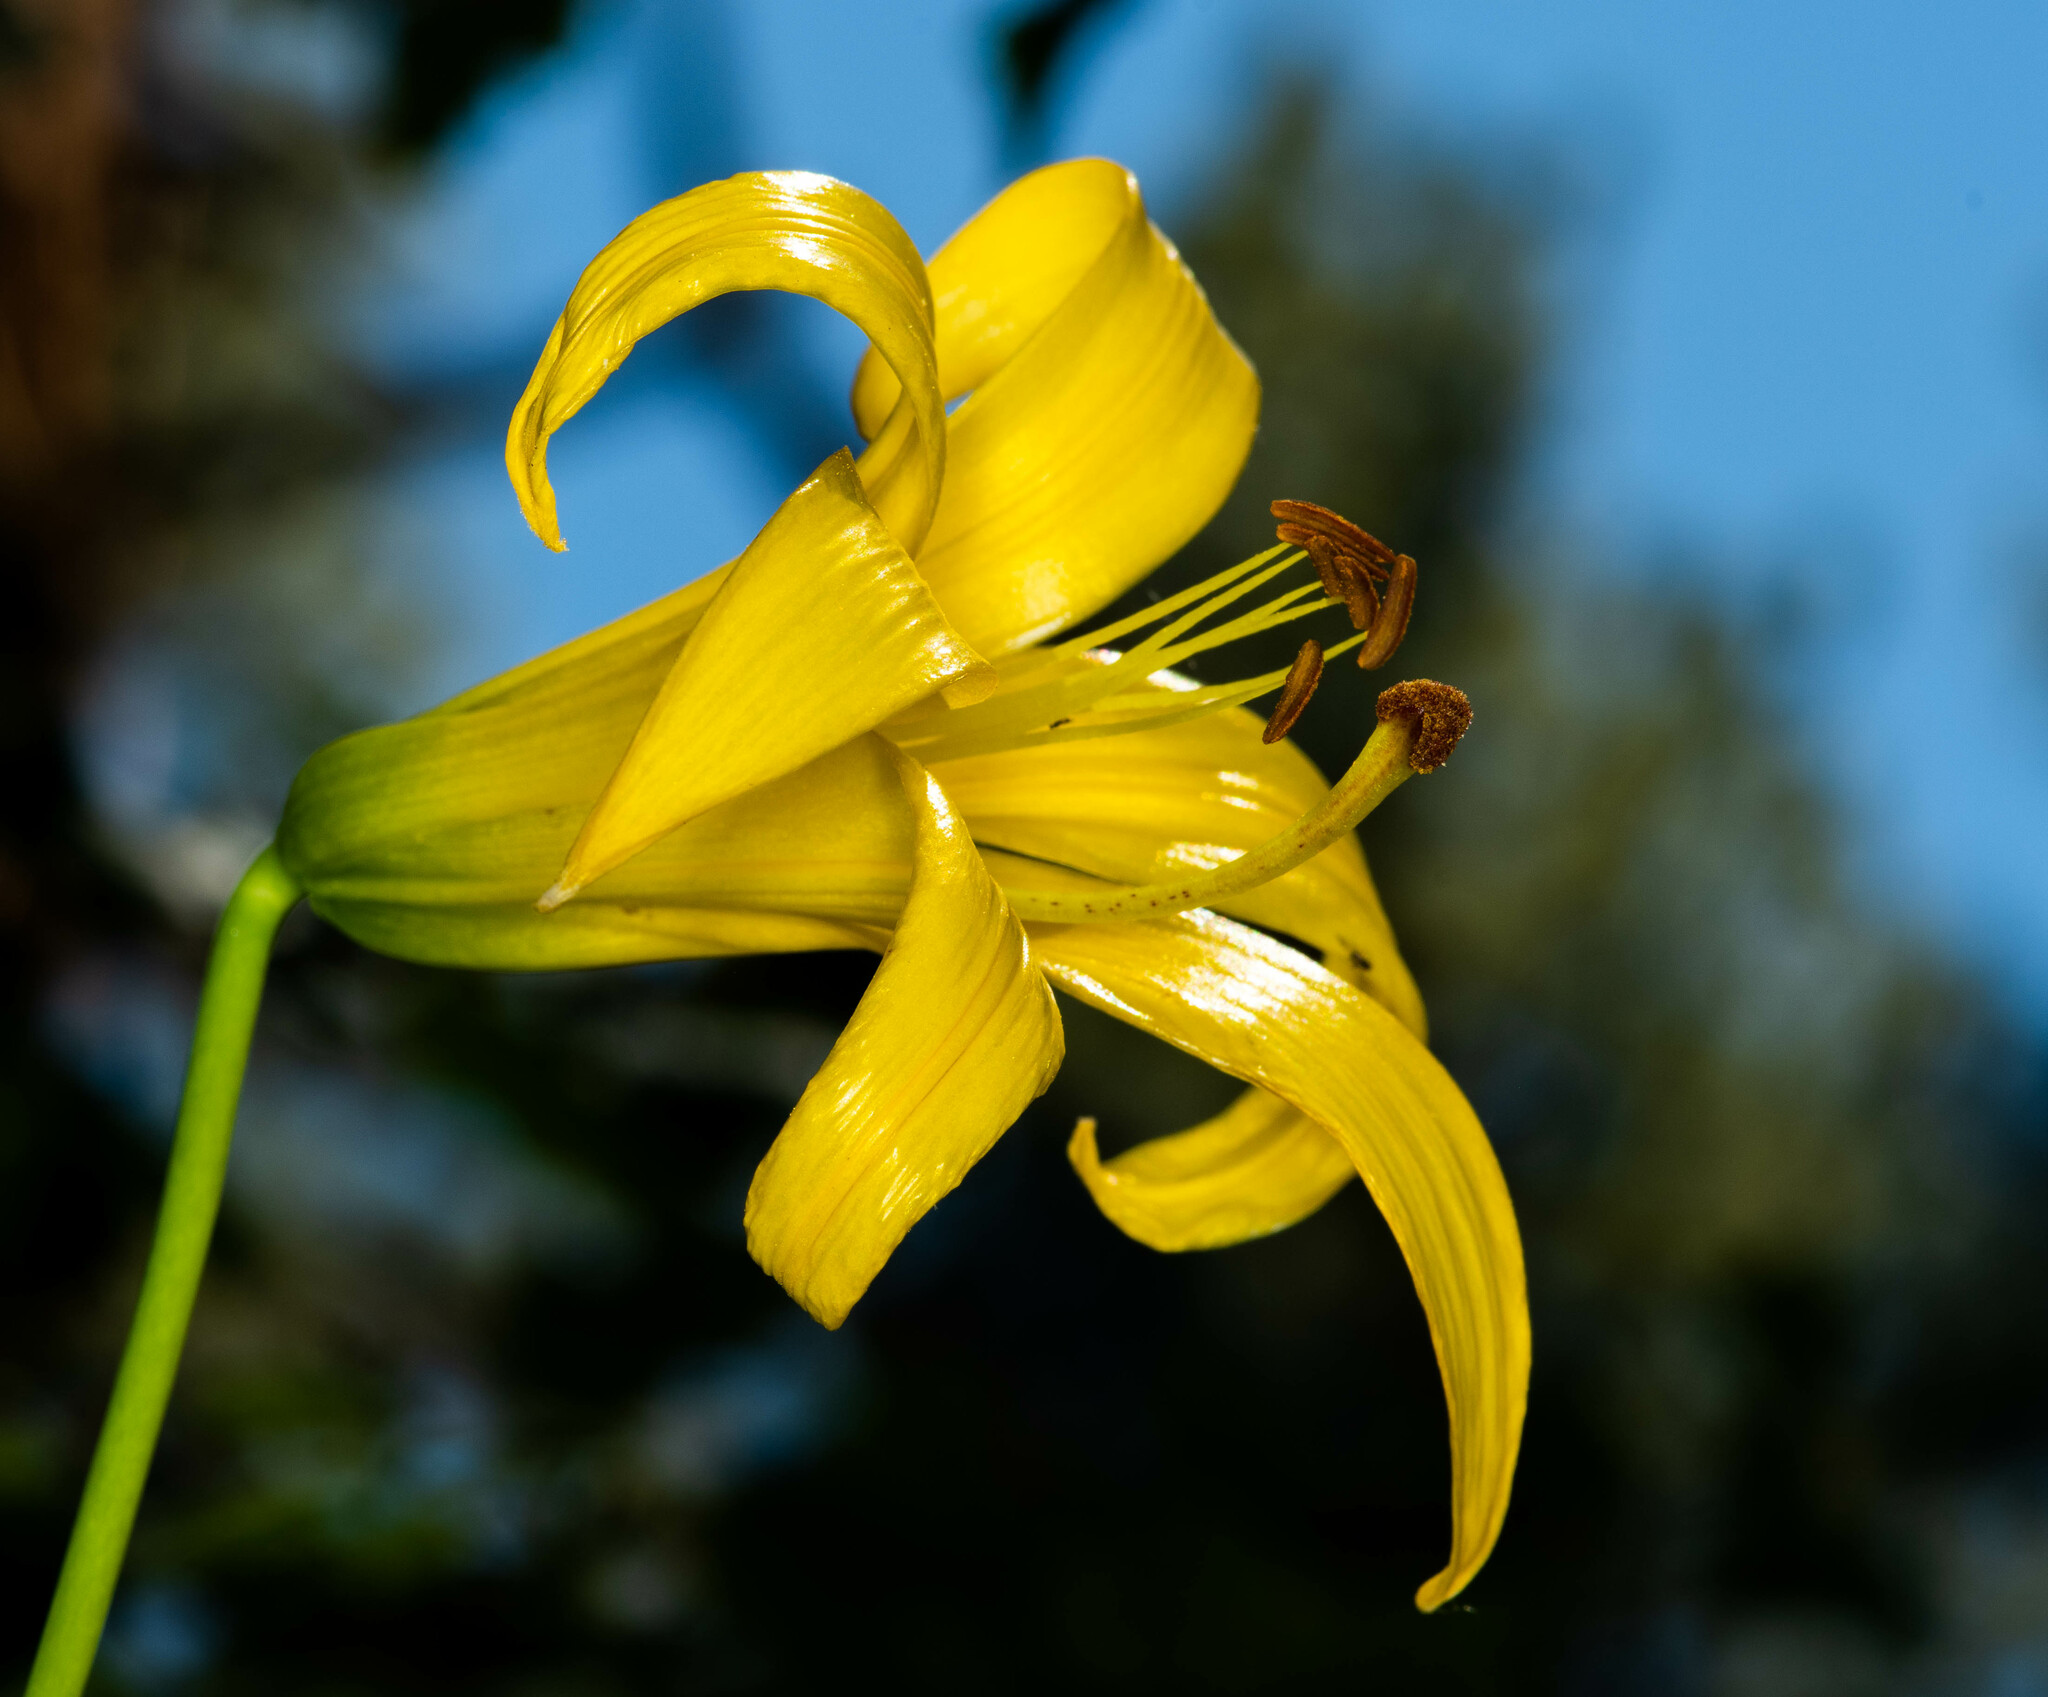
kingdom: Plantae
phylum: Tracheophyta
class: Liliopsida
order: Liliales
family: Liliaceae
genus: Lilium
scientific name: Lilium parryi
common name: Lemon lily
